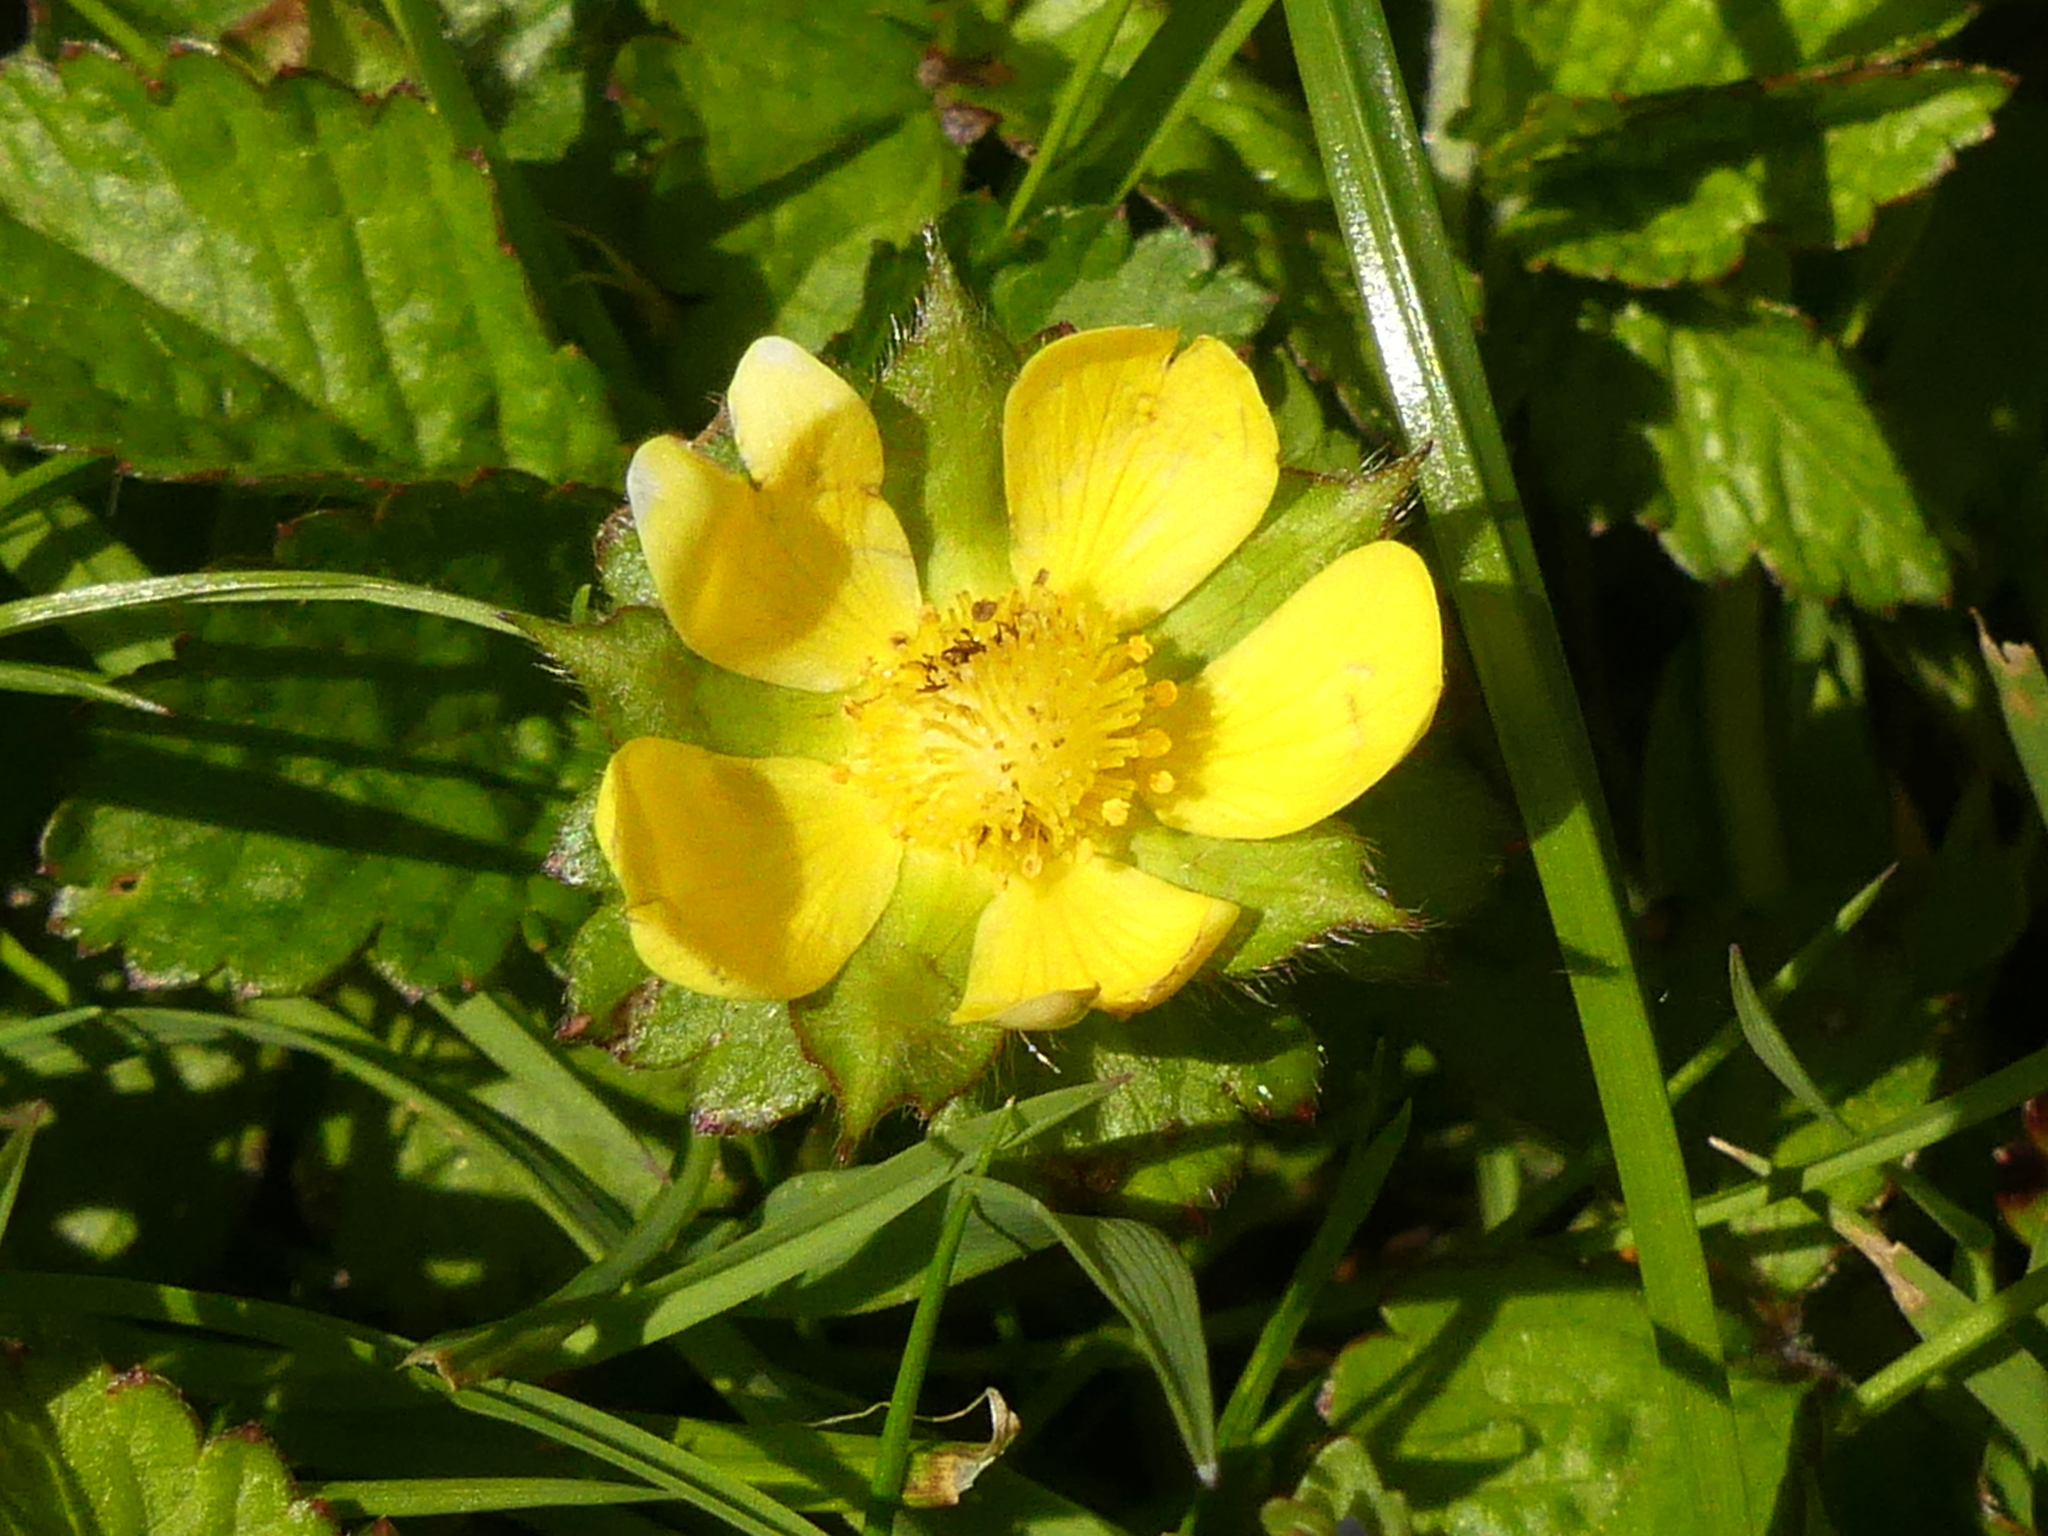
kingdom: Plantae
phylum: Tracheophyta
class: Magnoliopsida
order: Rosales
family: Rosaceae
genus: Potentilla
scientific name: Potentilla indica
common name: Yellow-flowered strawberry
